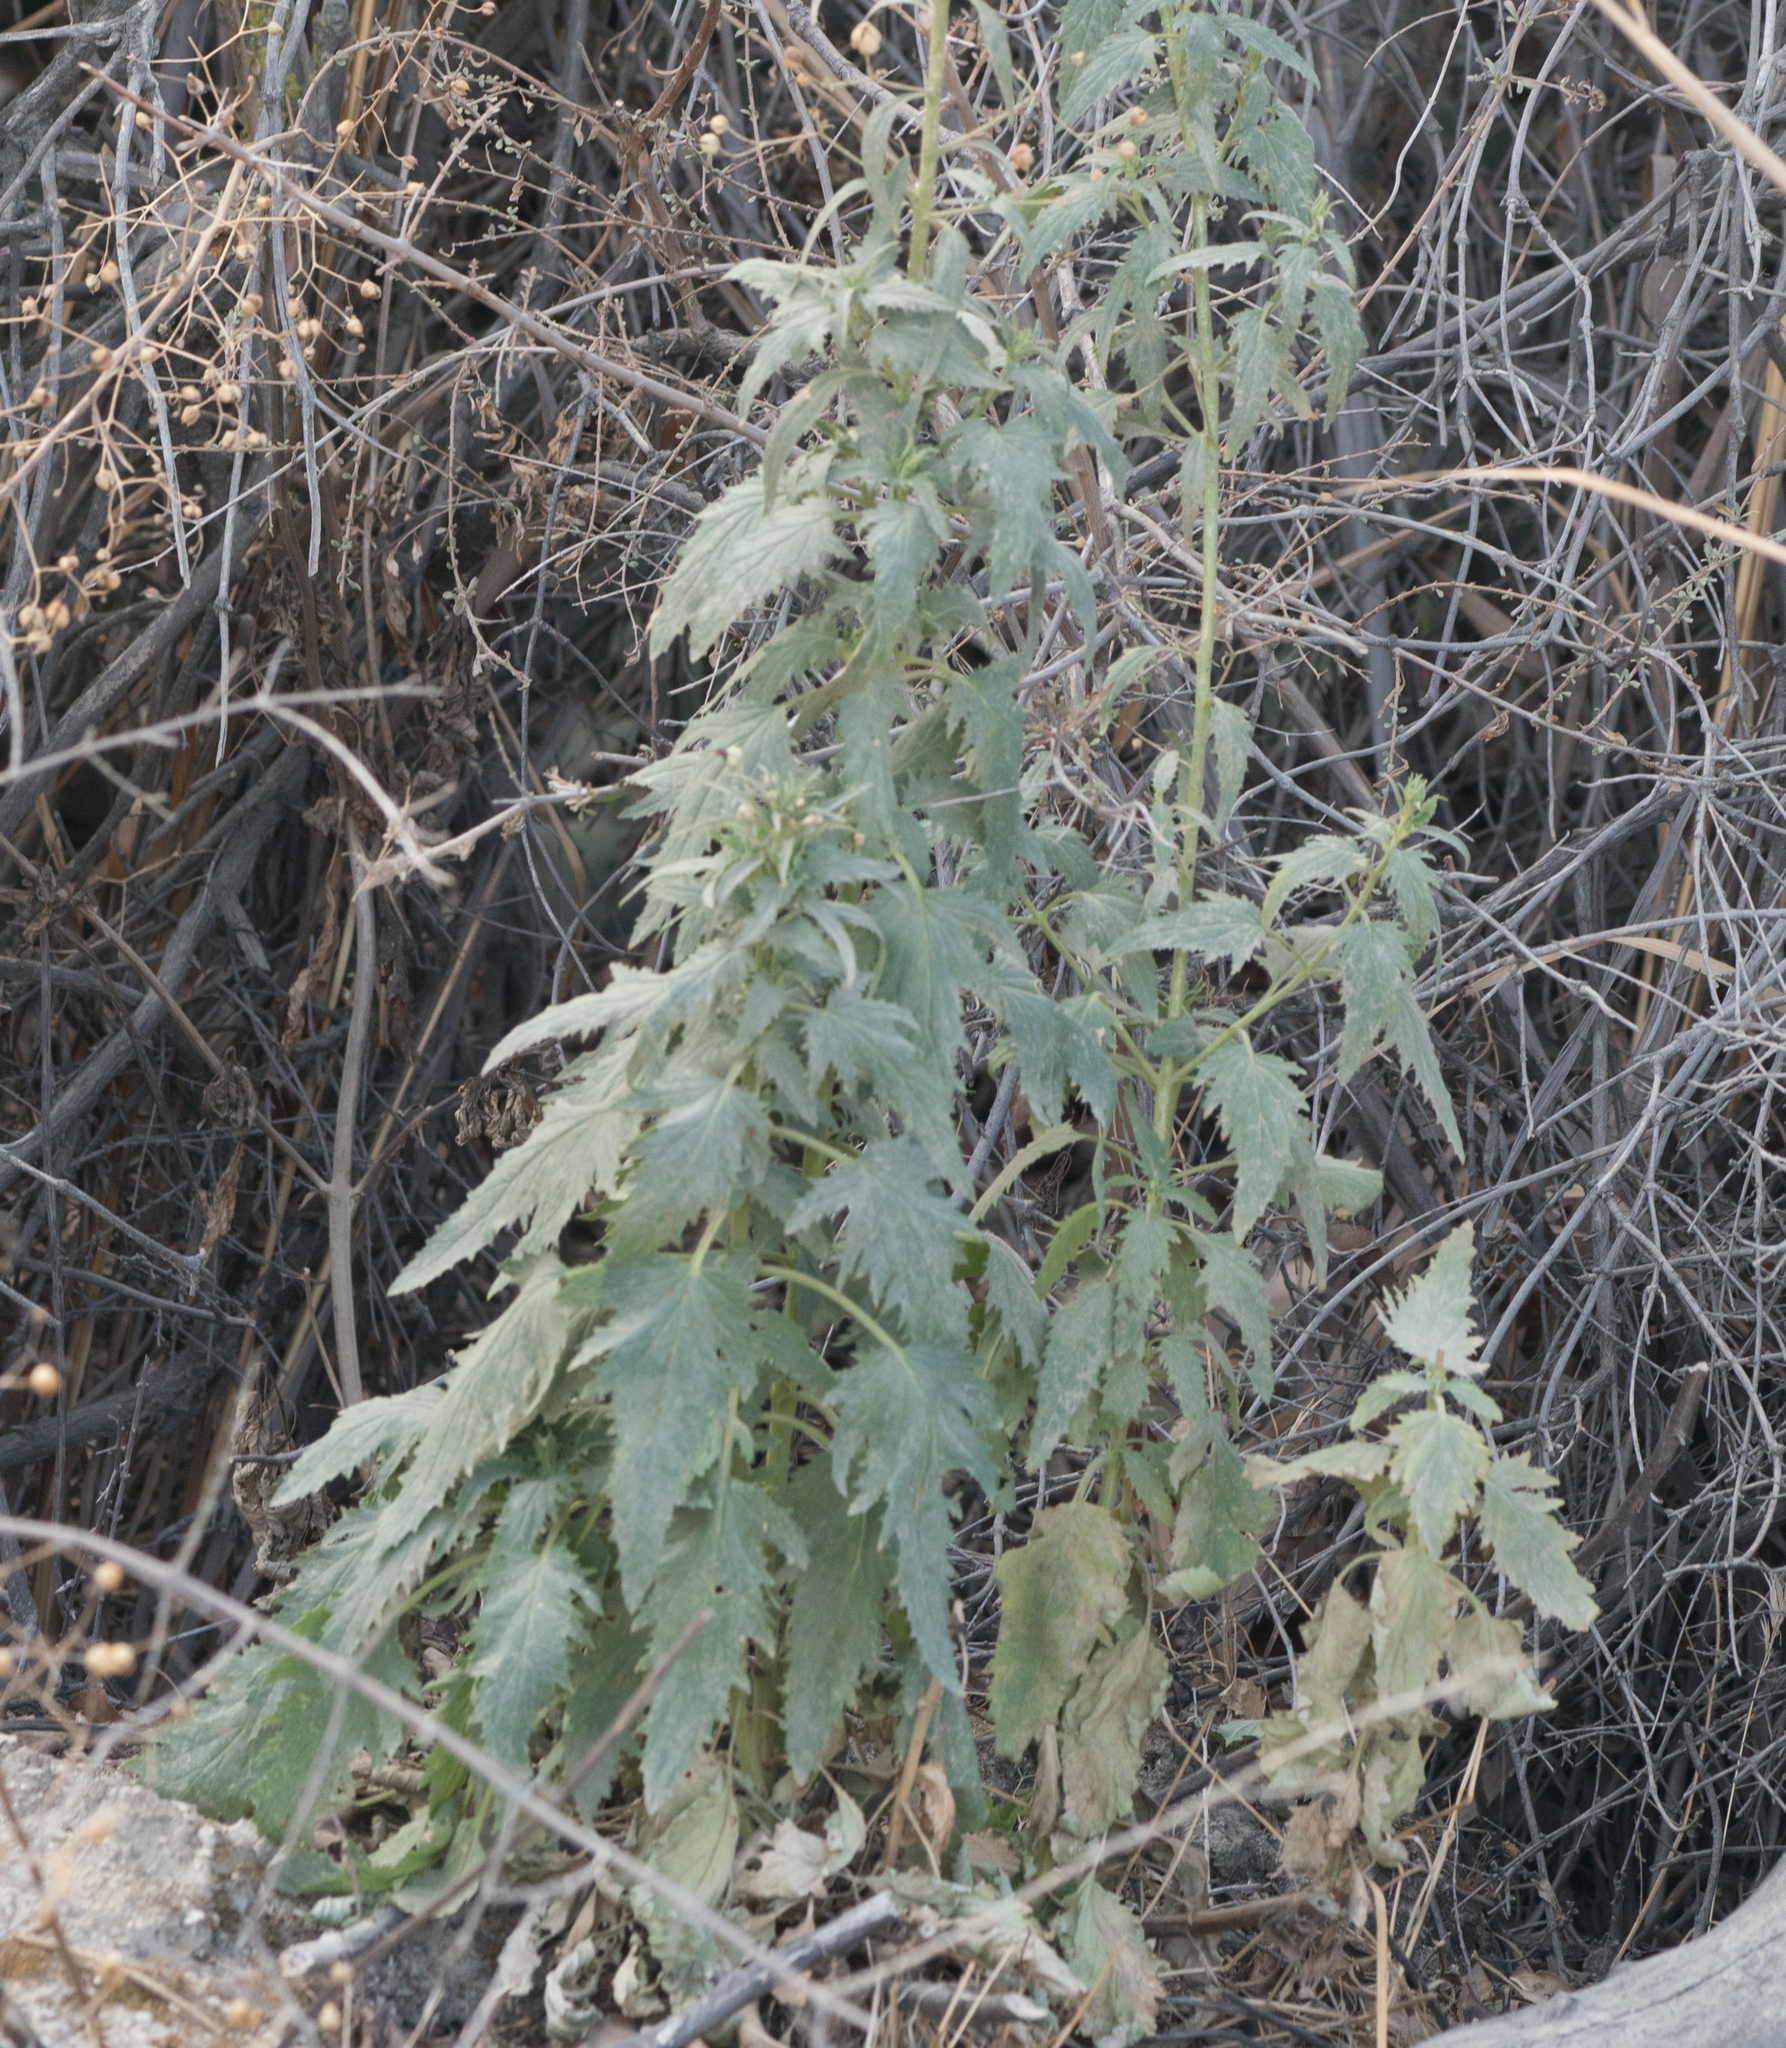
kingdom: Plantae
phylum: Tracheophyta
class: Magnoliopsida
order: Lamiales
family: Scrophulariaceae
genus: Scrophularia
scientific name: Scrophularia californica
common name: California figwort
